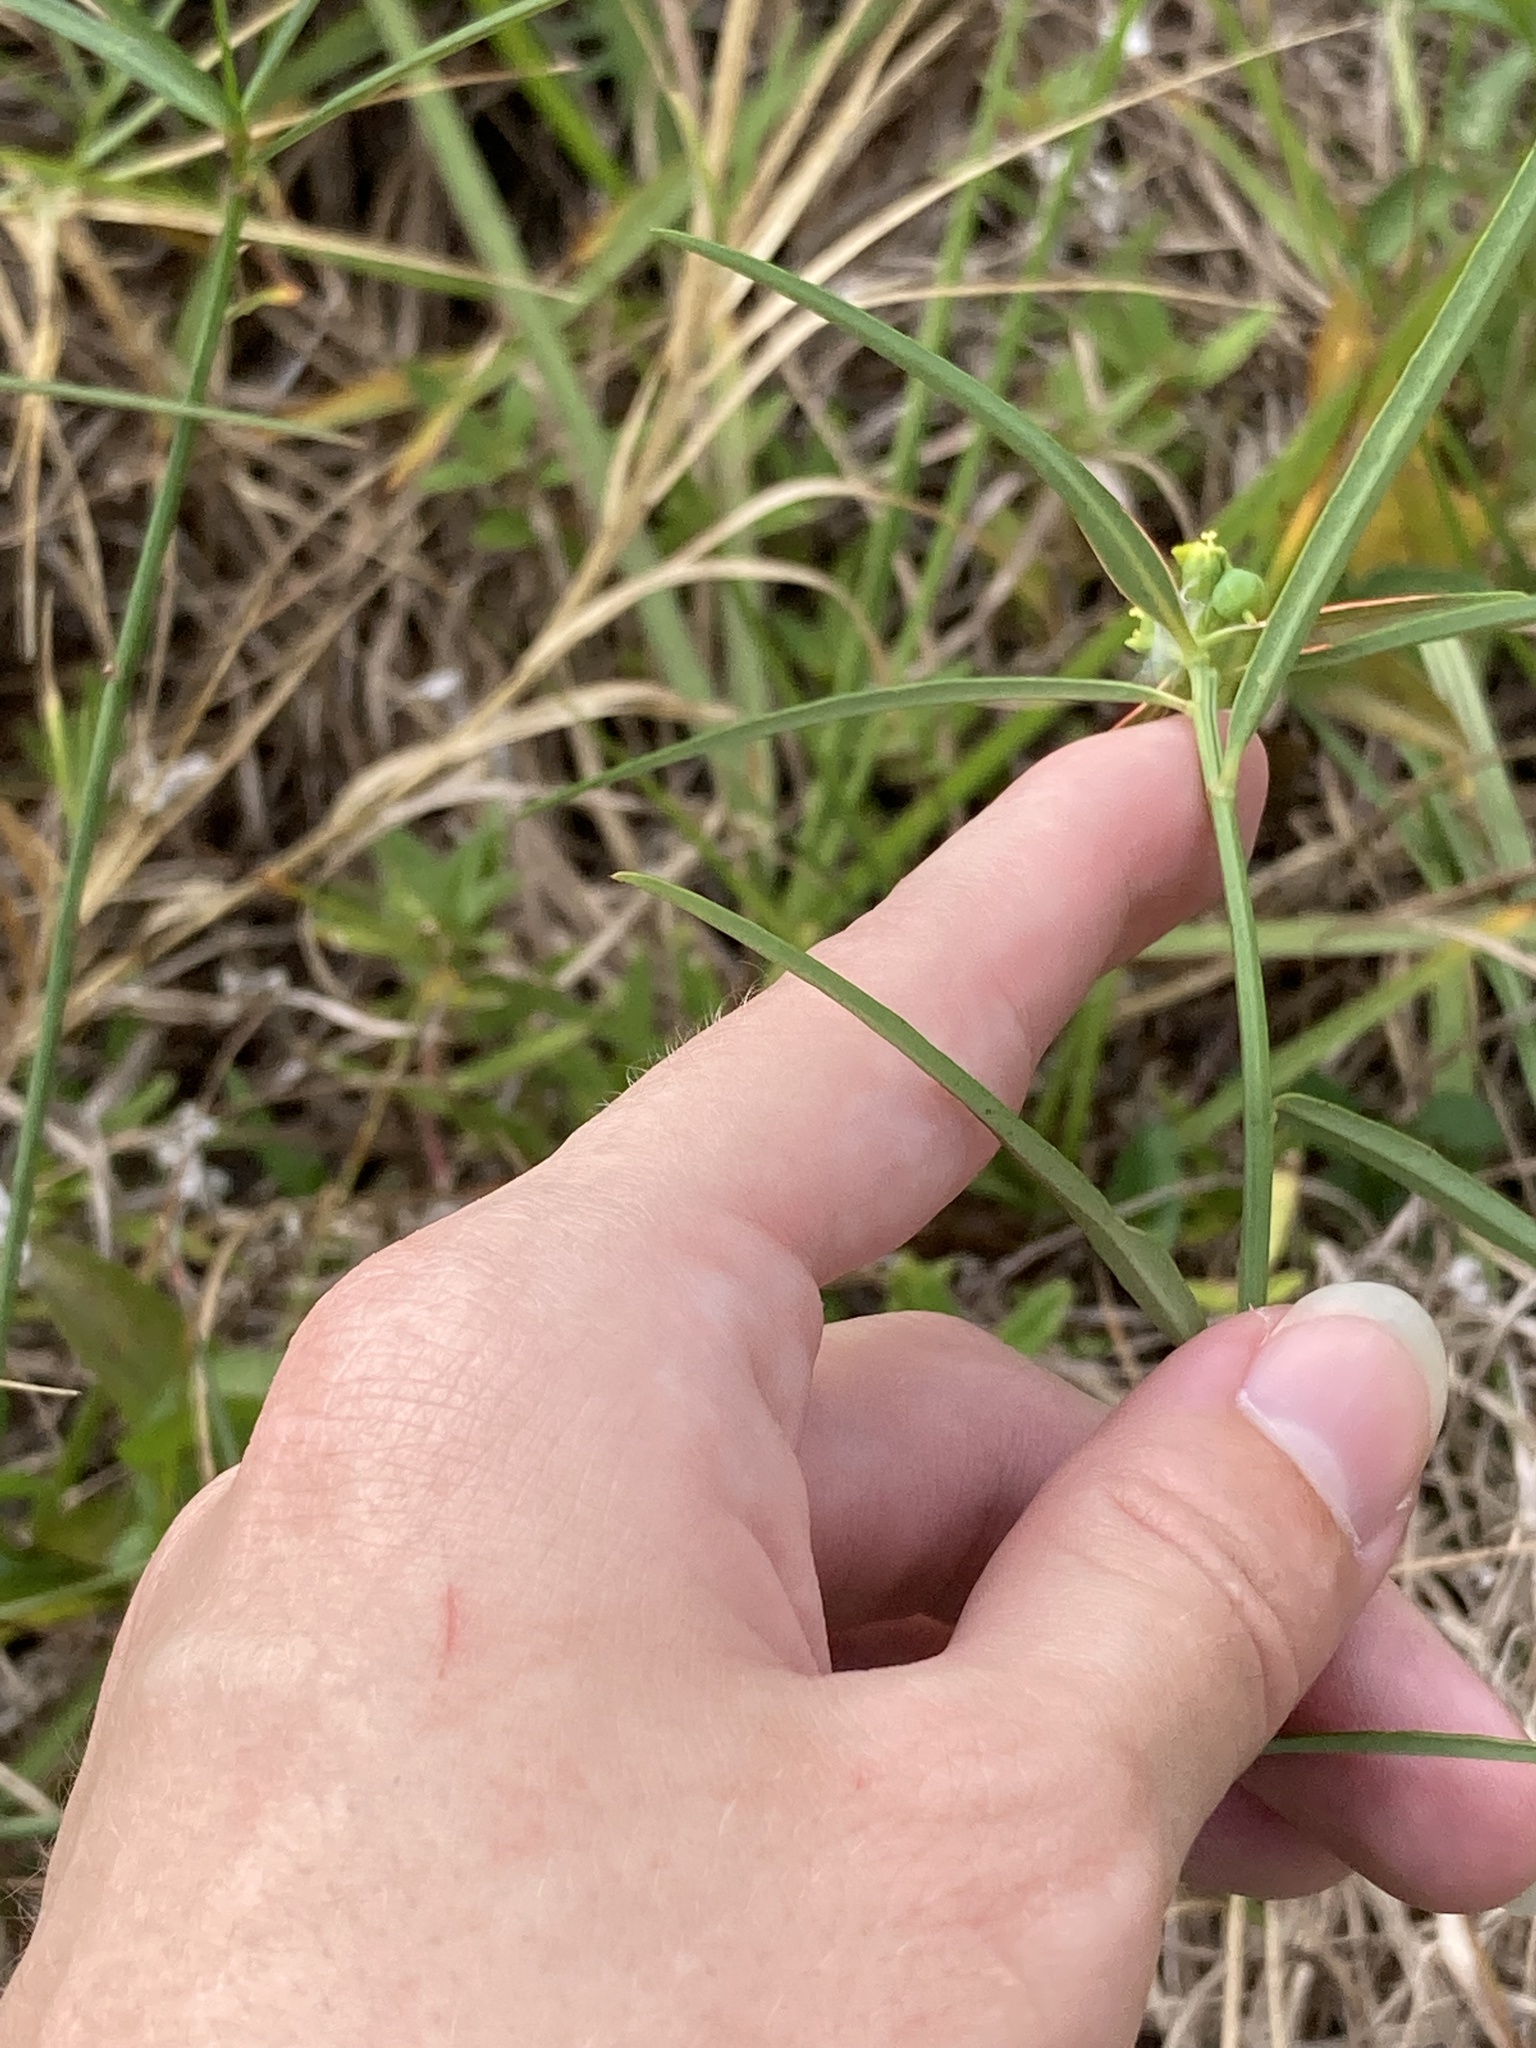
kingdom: Plantae
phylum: Tracheophyta
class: Magnoliopsida
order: Malpighiales
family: Euphorbiaceae
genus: Euphorbia
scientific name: Euphorbia heterophylla
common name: Mexican fireplant
